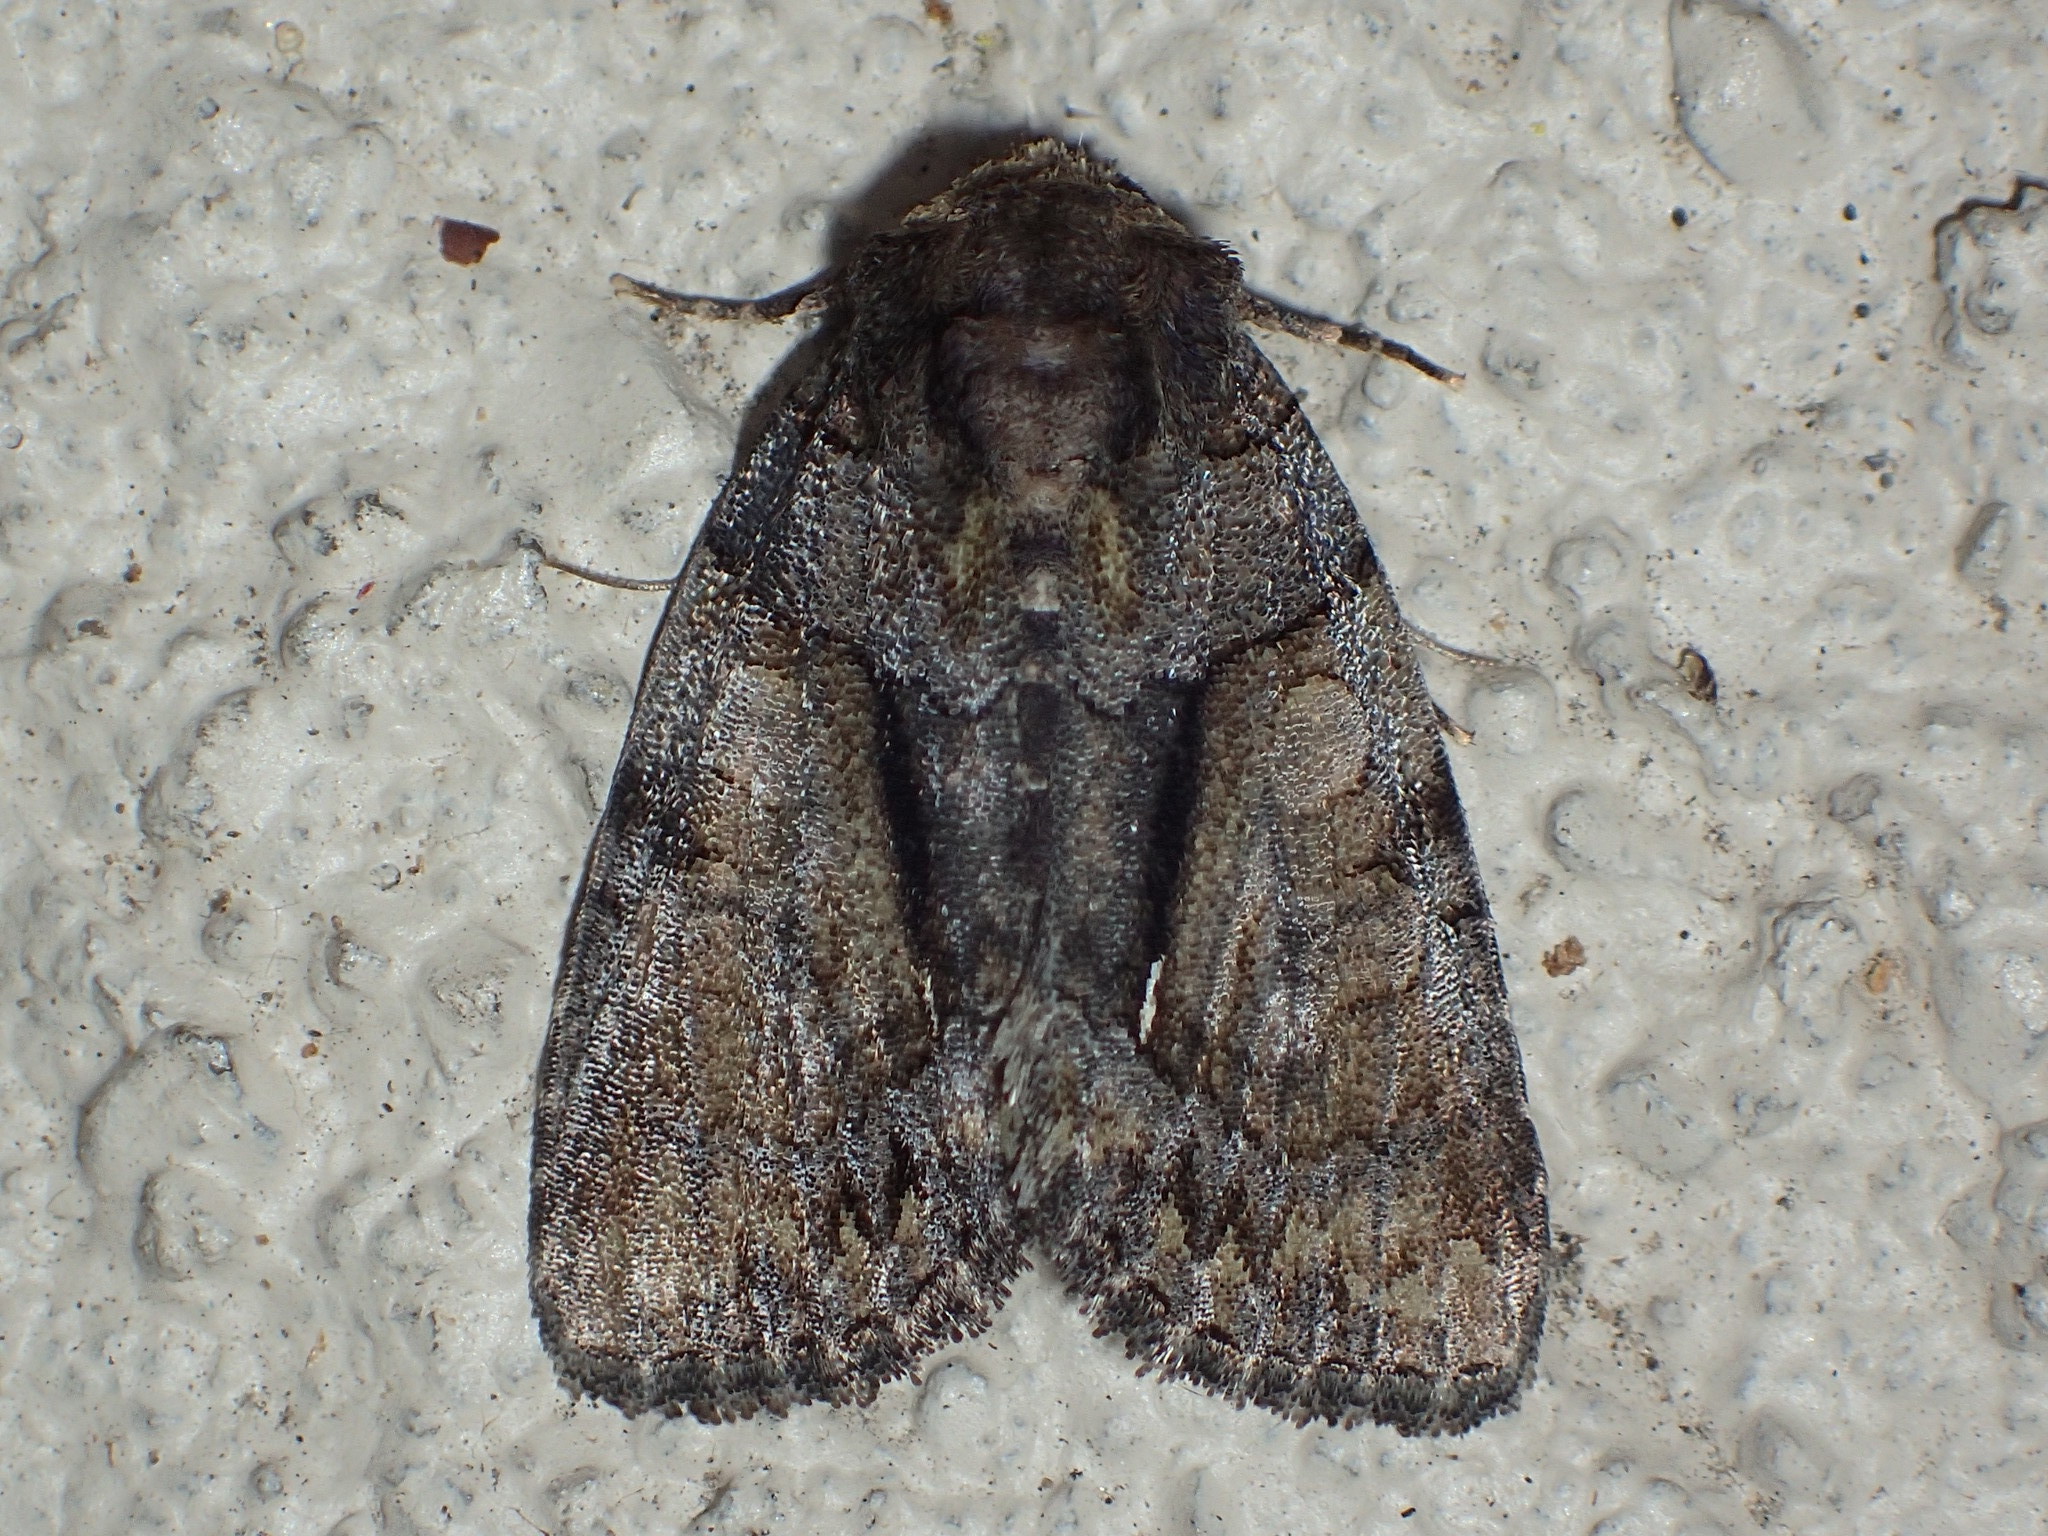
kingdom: Animalia
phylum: Arthropoda
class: Insecta
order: Lepidoptera
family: Noctuidae
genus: Chytonix
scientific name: Chytonix palliatricula
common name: Cloaked marvel
